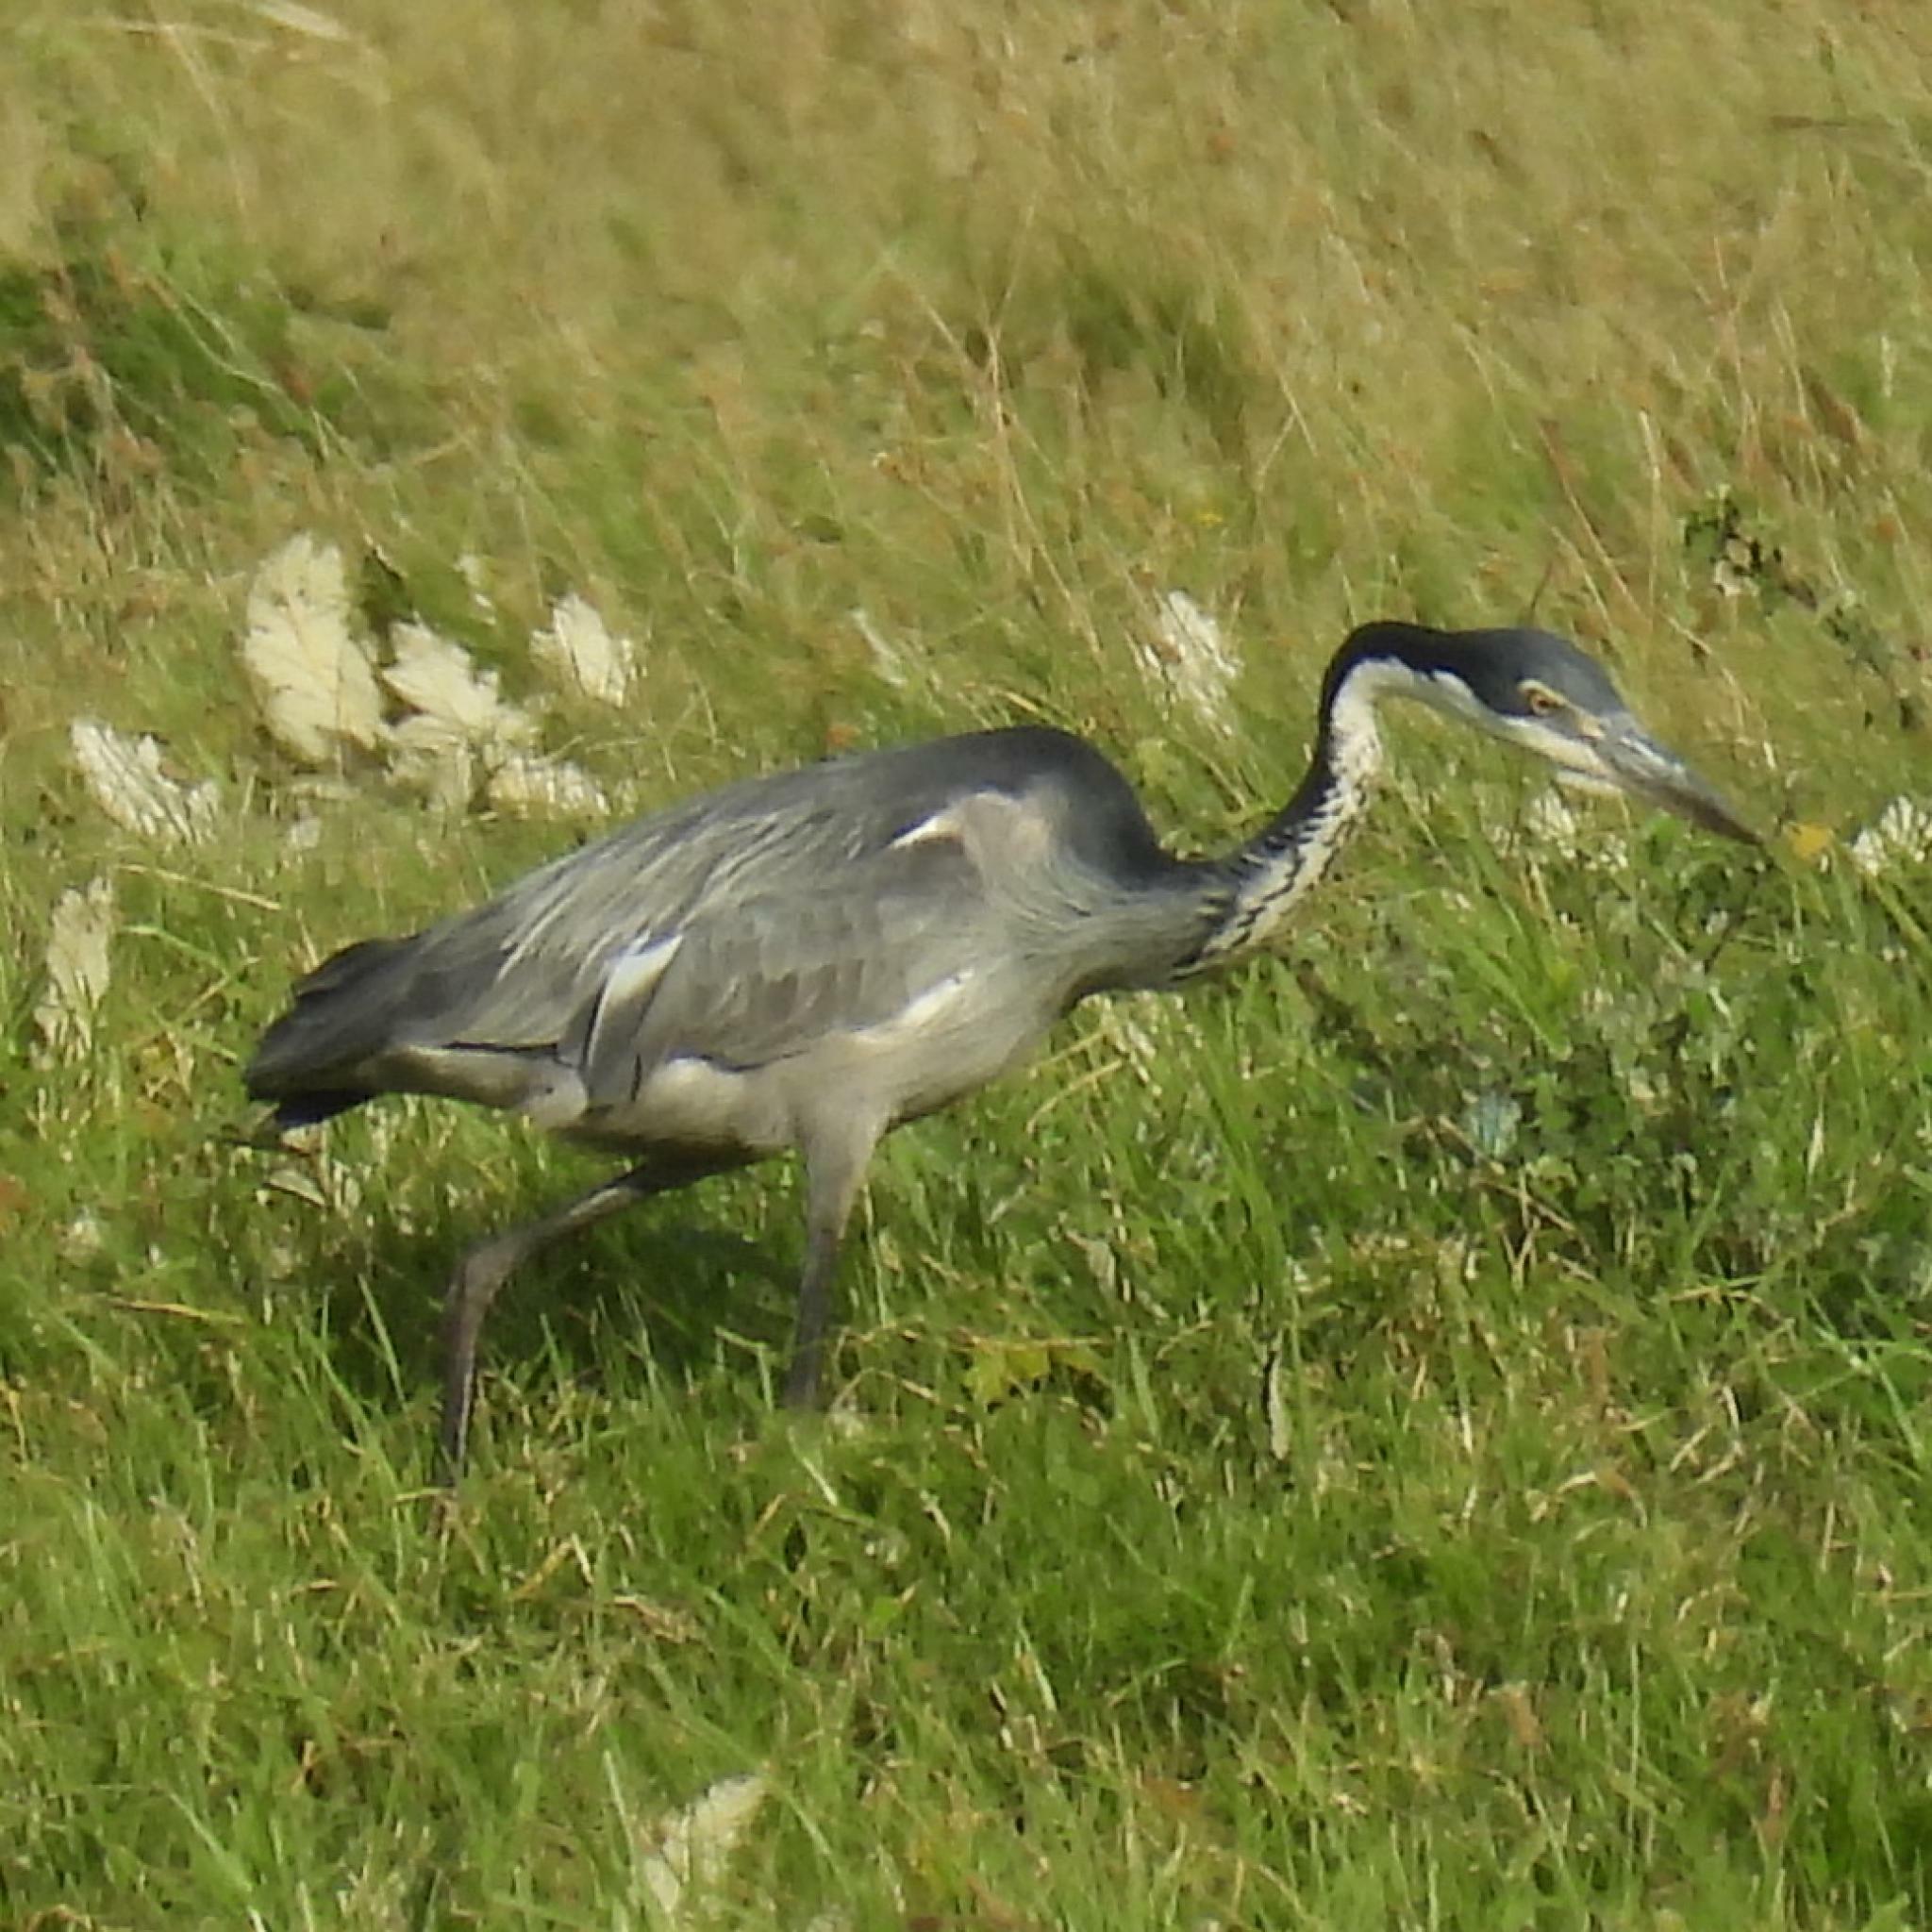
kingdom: Animalia
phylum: Chordata
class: Aves
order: Pelecaniformes
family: Ardeidae
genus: Ardea
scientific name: Ardea melanocephala
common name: Black-headed heron
